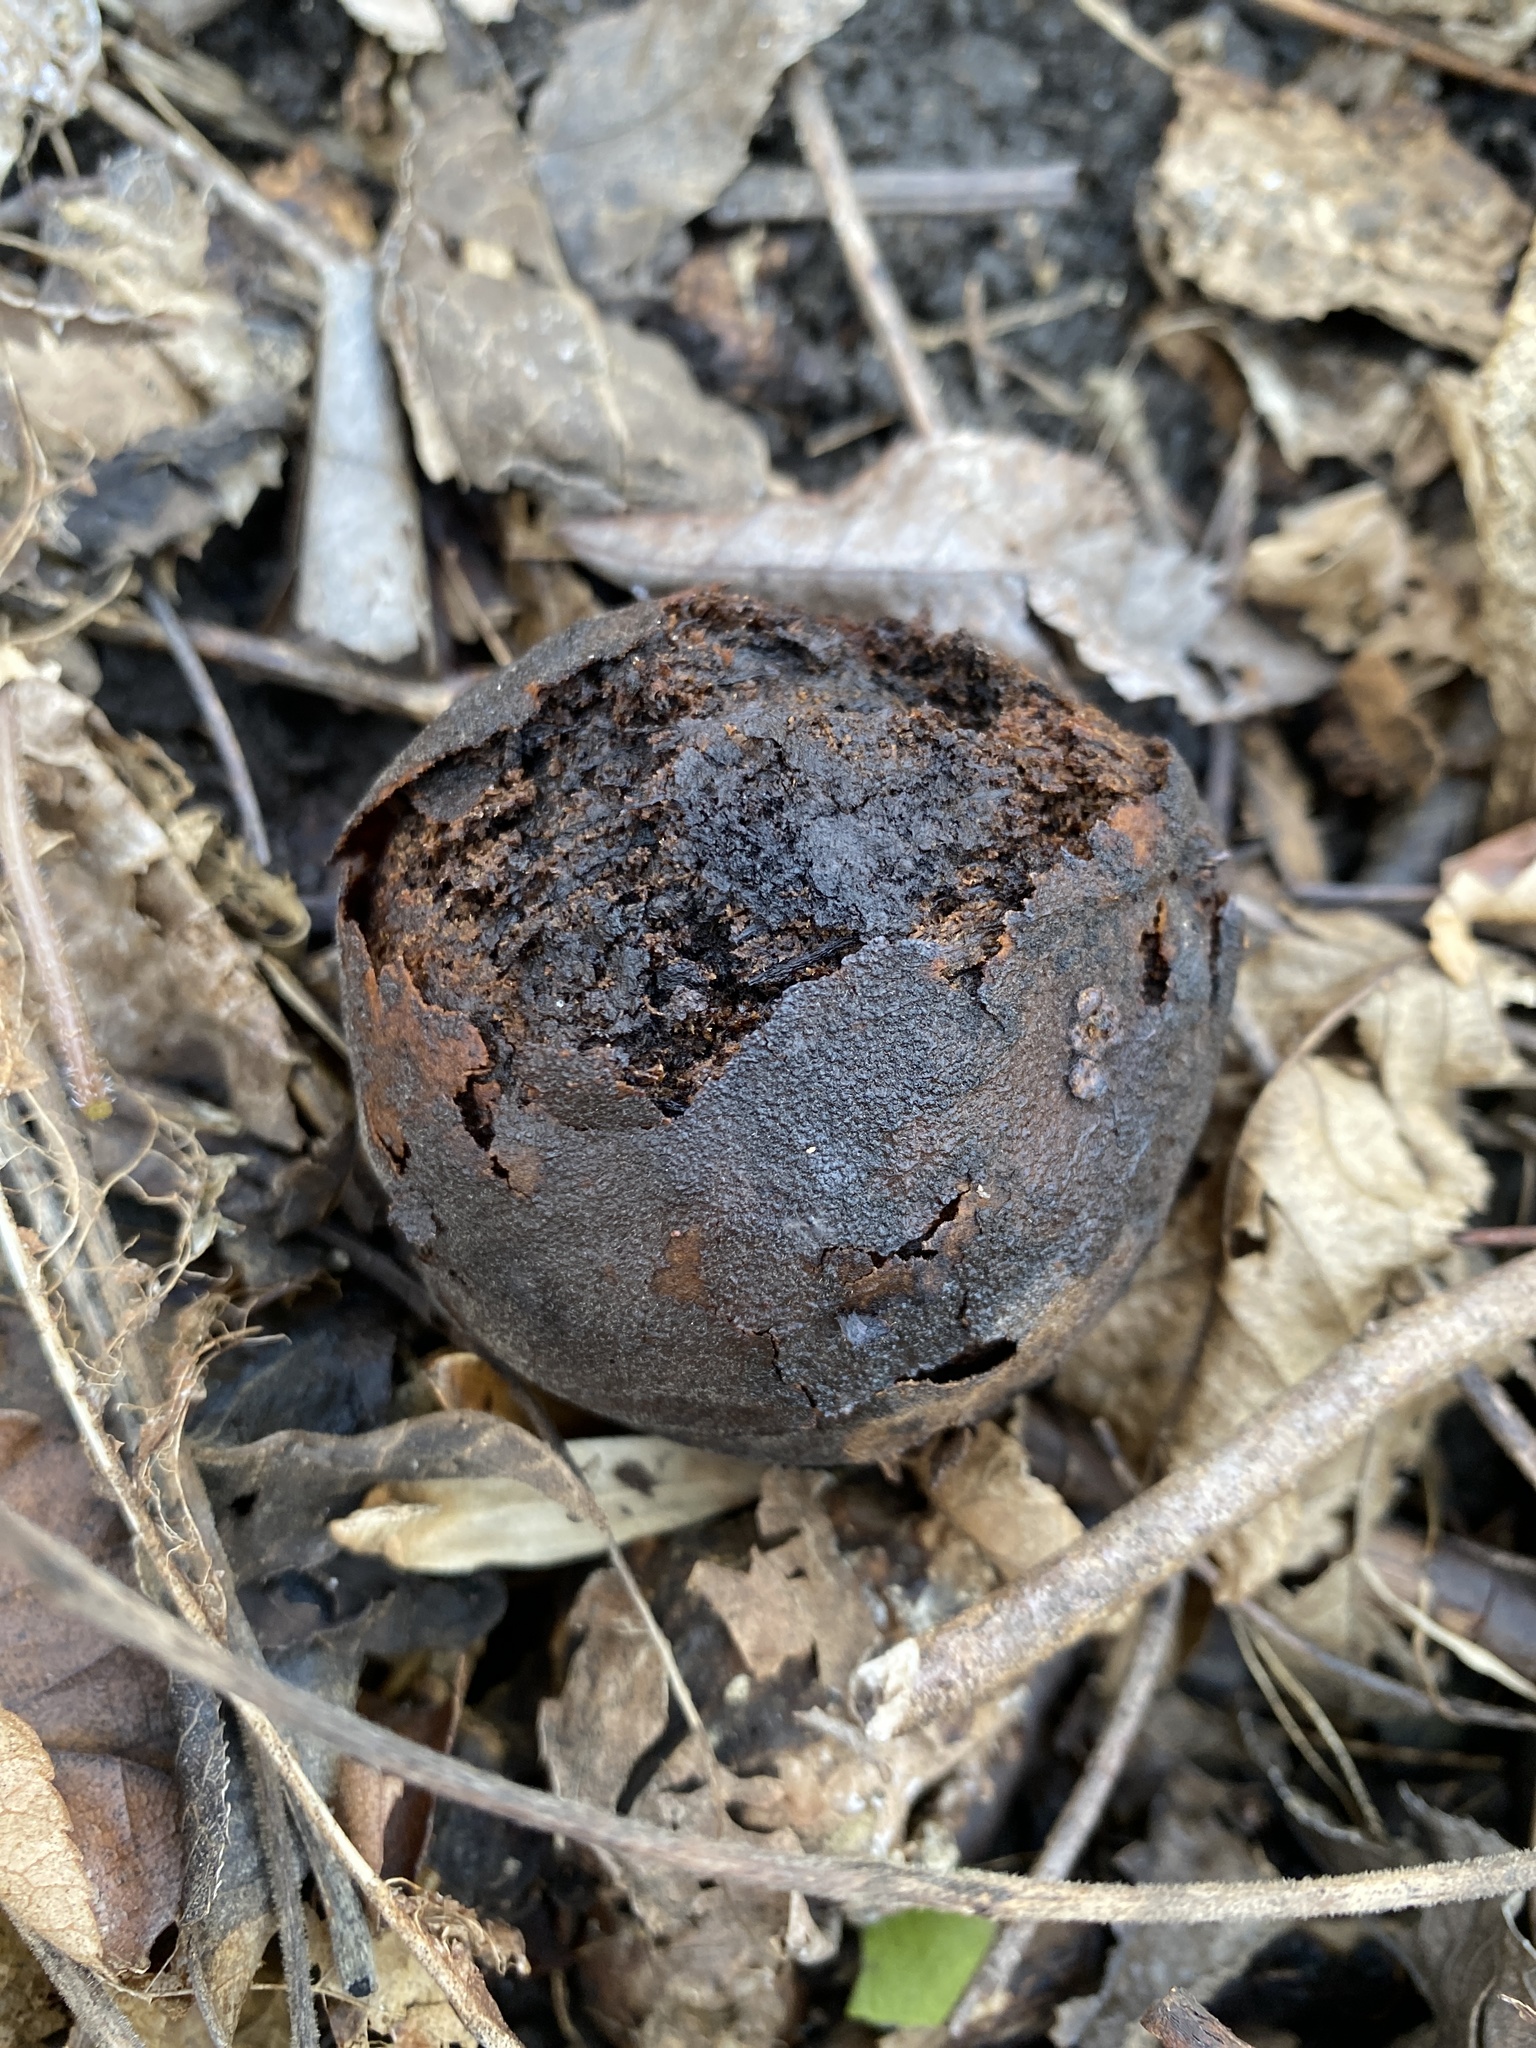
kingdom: Plantae
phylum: Tracheophyta
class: Magnoliopsida
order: Fagales
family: Juglandaceae
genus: Juglans
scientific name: Juglans nigra
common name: Black walnut
